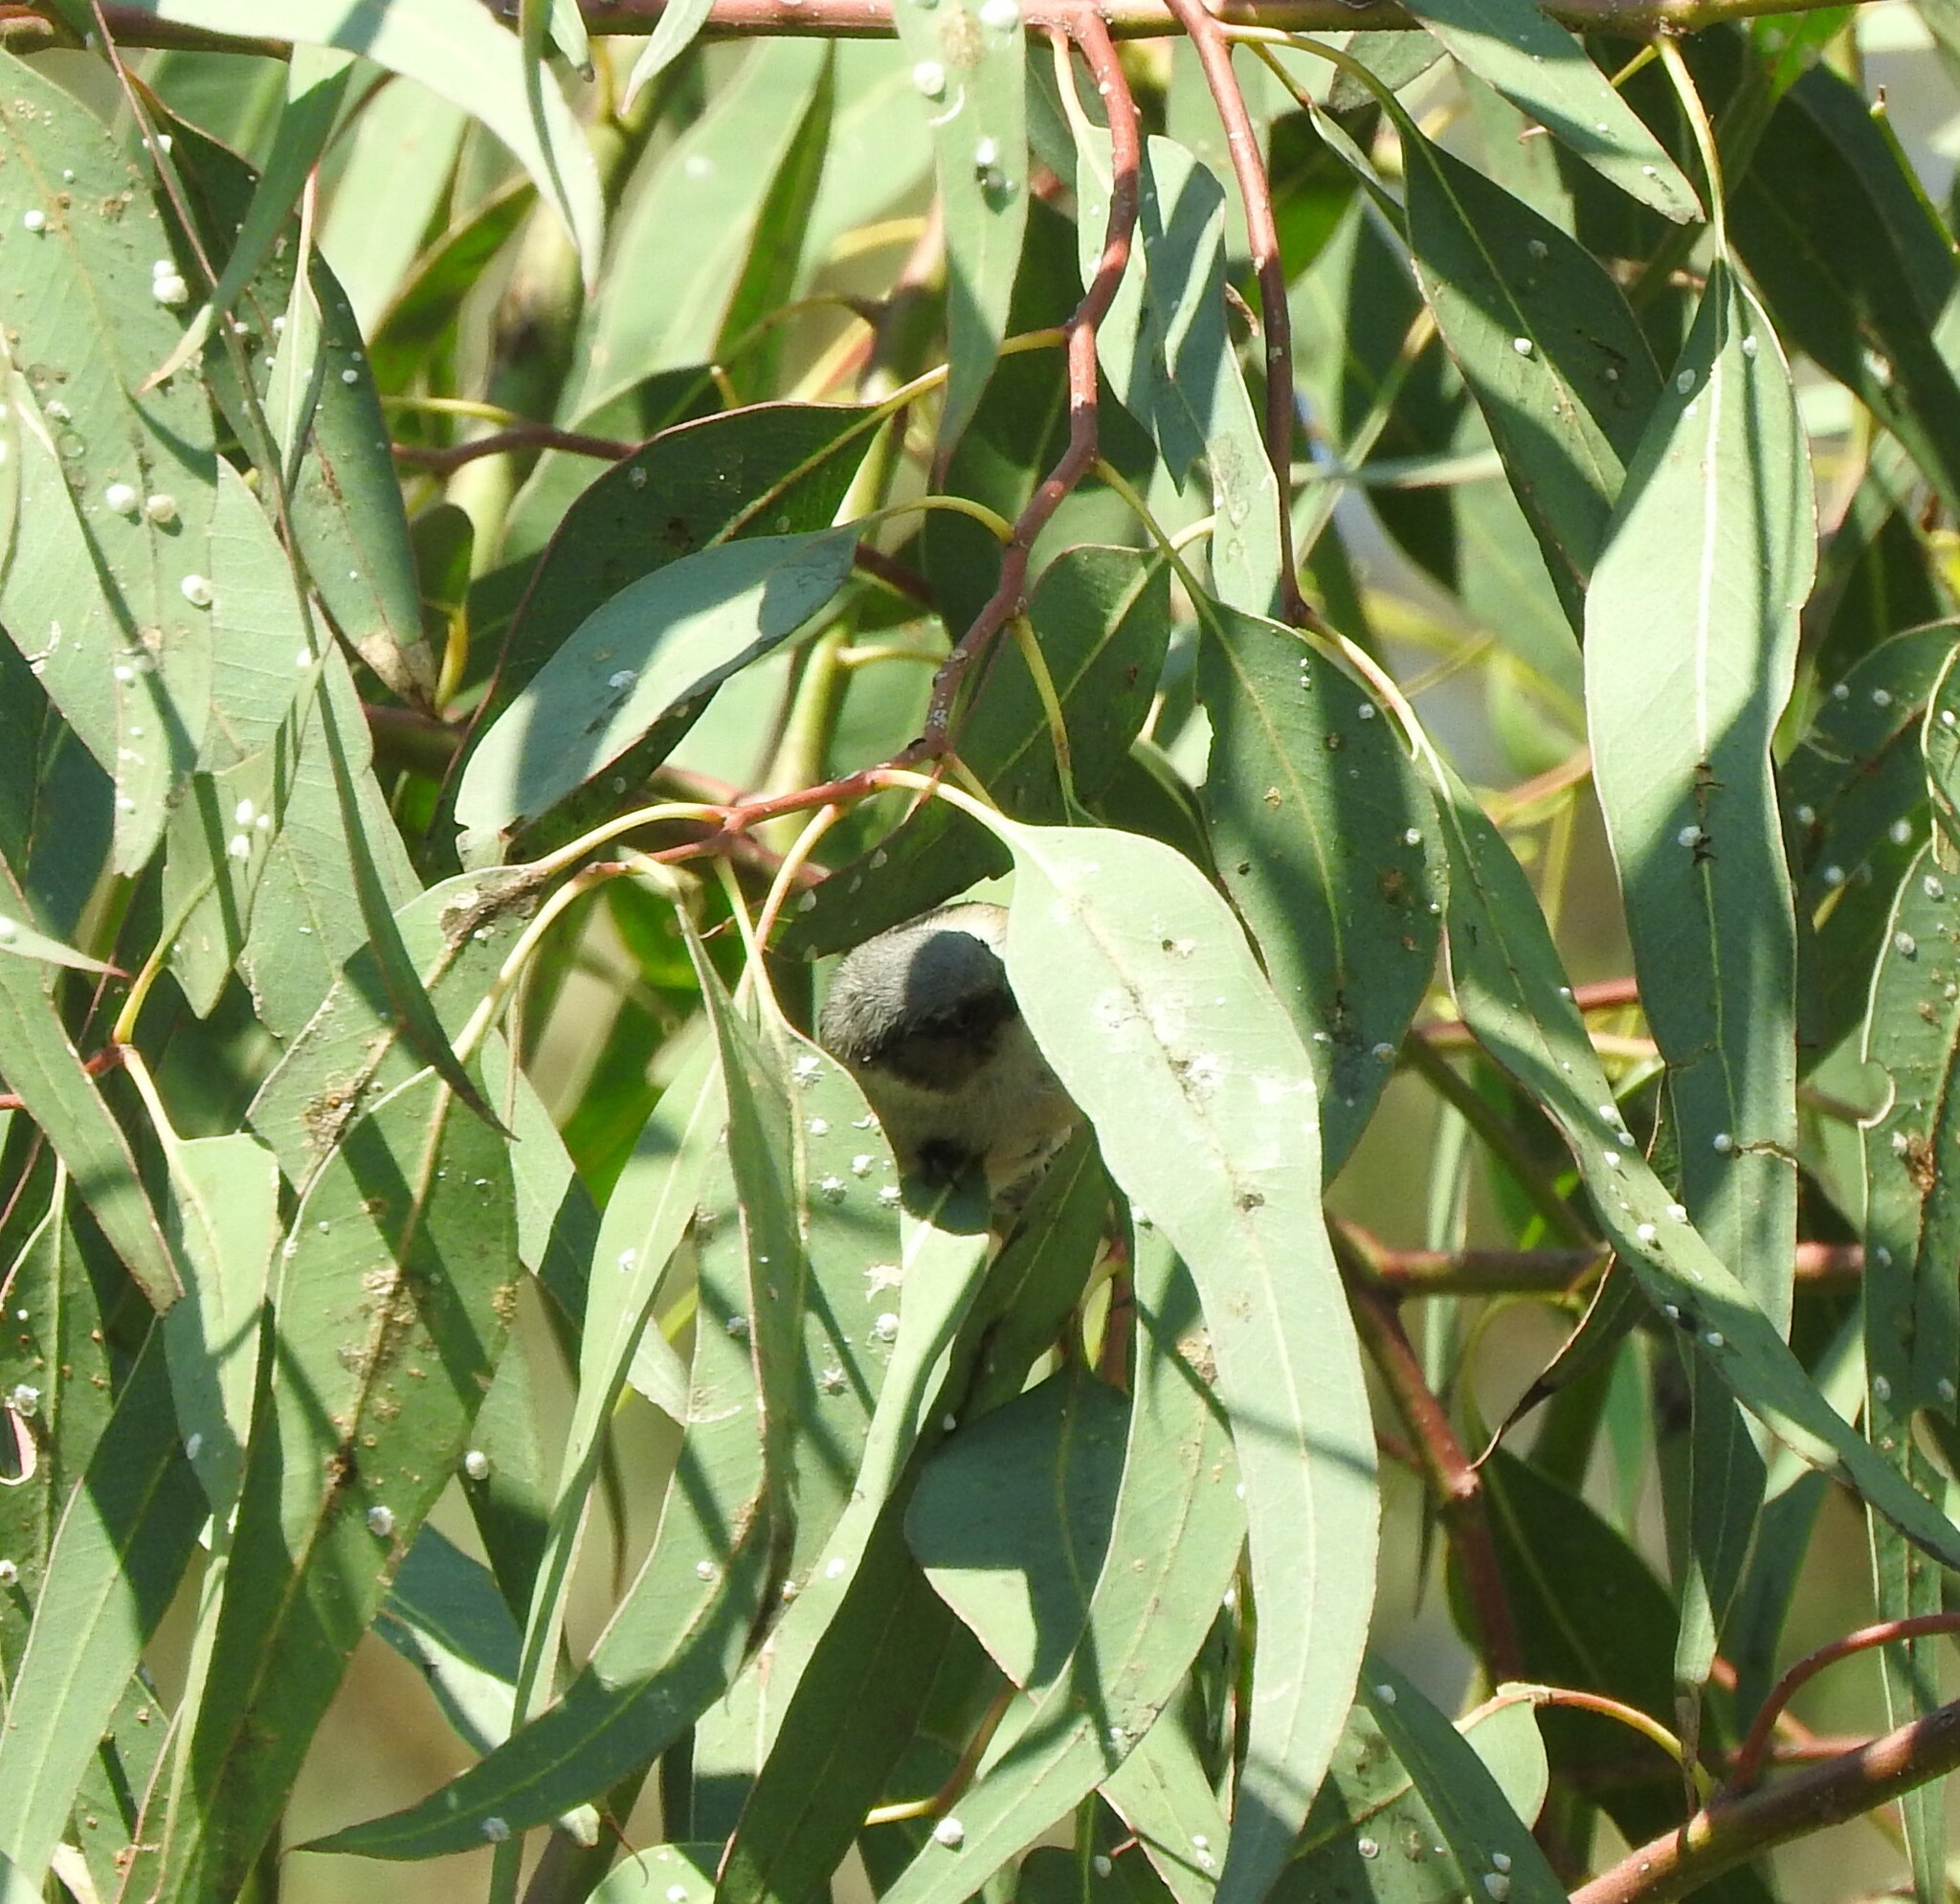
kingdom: Animalia
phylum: Chordata
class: Aves
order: Passeriformes
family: Aegithalidae
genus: Psaltriparus
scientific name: Psaltriparus minimus
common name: American bushtit
